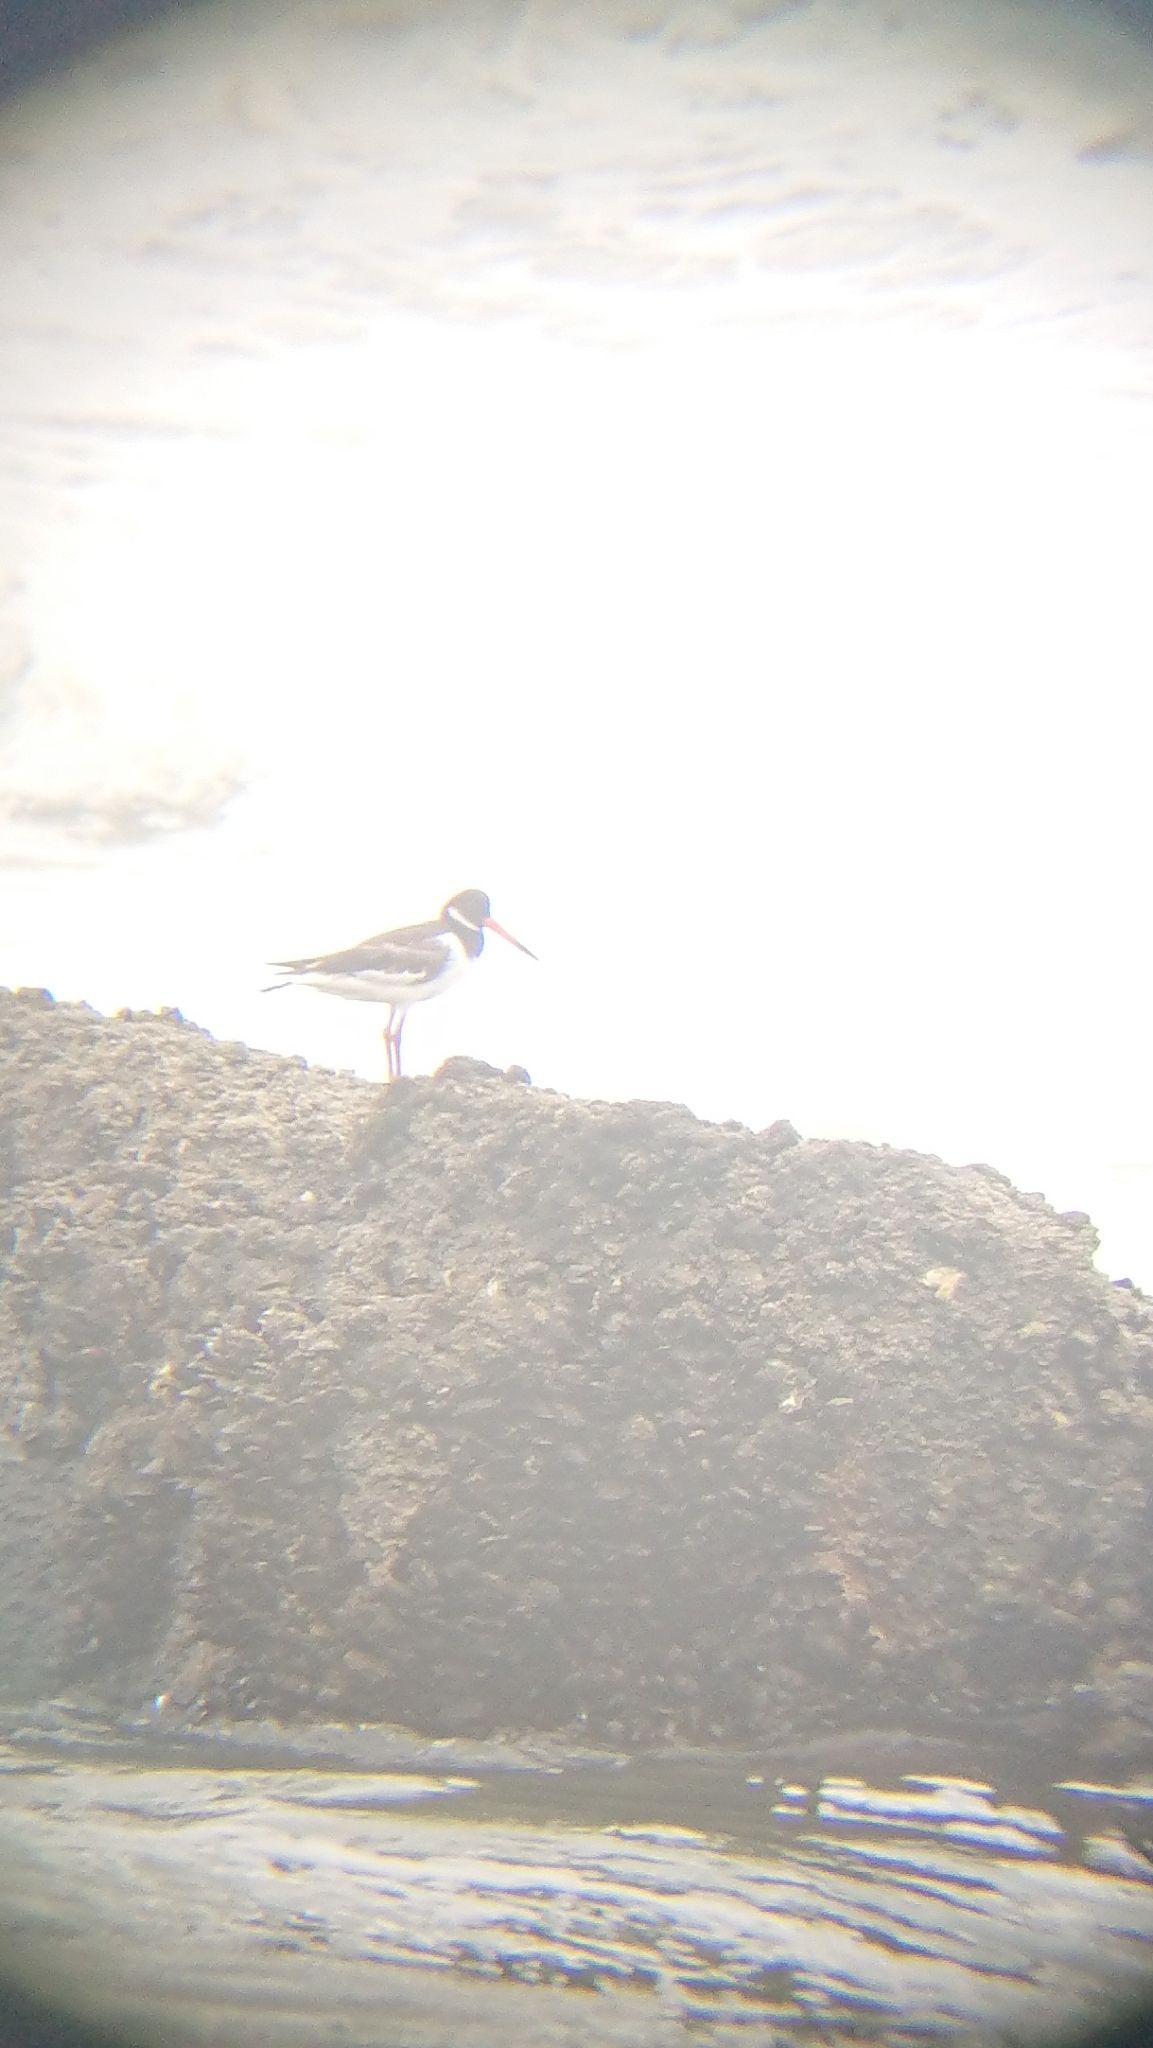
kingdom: Animalia
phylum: Chordata
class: Aves
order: Charadriiformes
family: Haematopodidae
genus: Haematopus
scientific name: Haematopus ostralegus
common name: Eurasian oystercatcher
